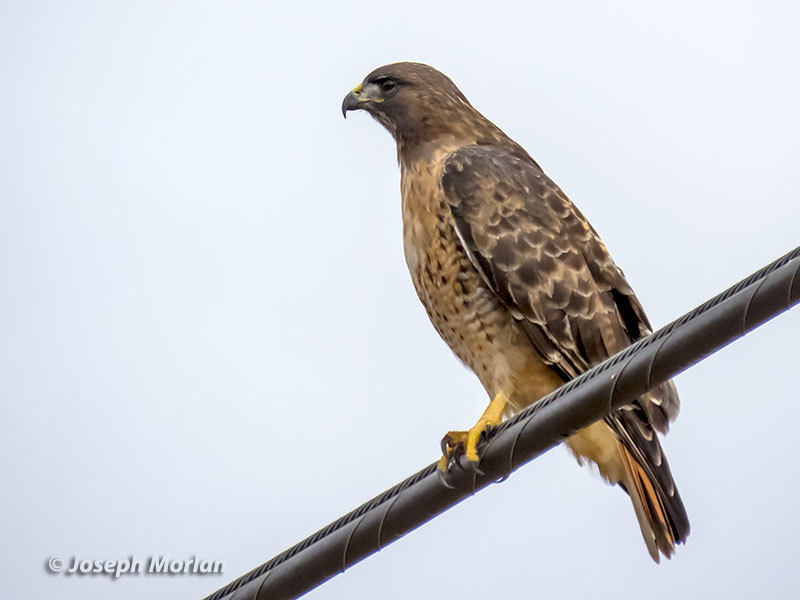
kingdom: Animalia
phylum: Chordata
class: Aves
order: Accipitriformes
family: Accipitridae
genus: Buteo
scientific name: Buteo jamaicensis
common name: Red-tailed hawk
